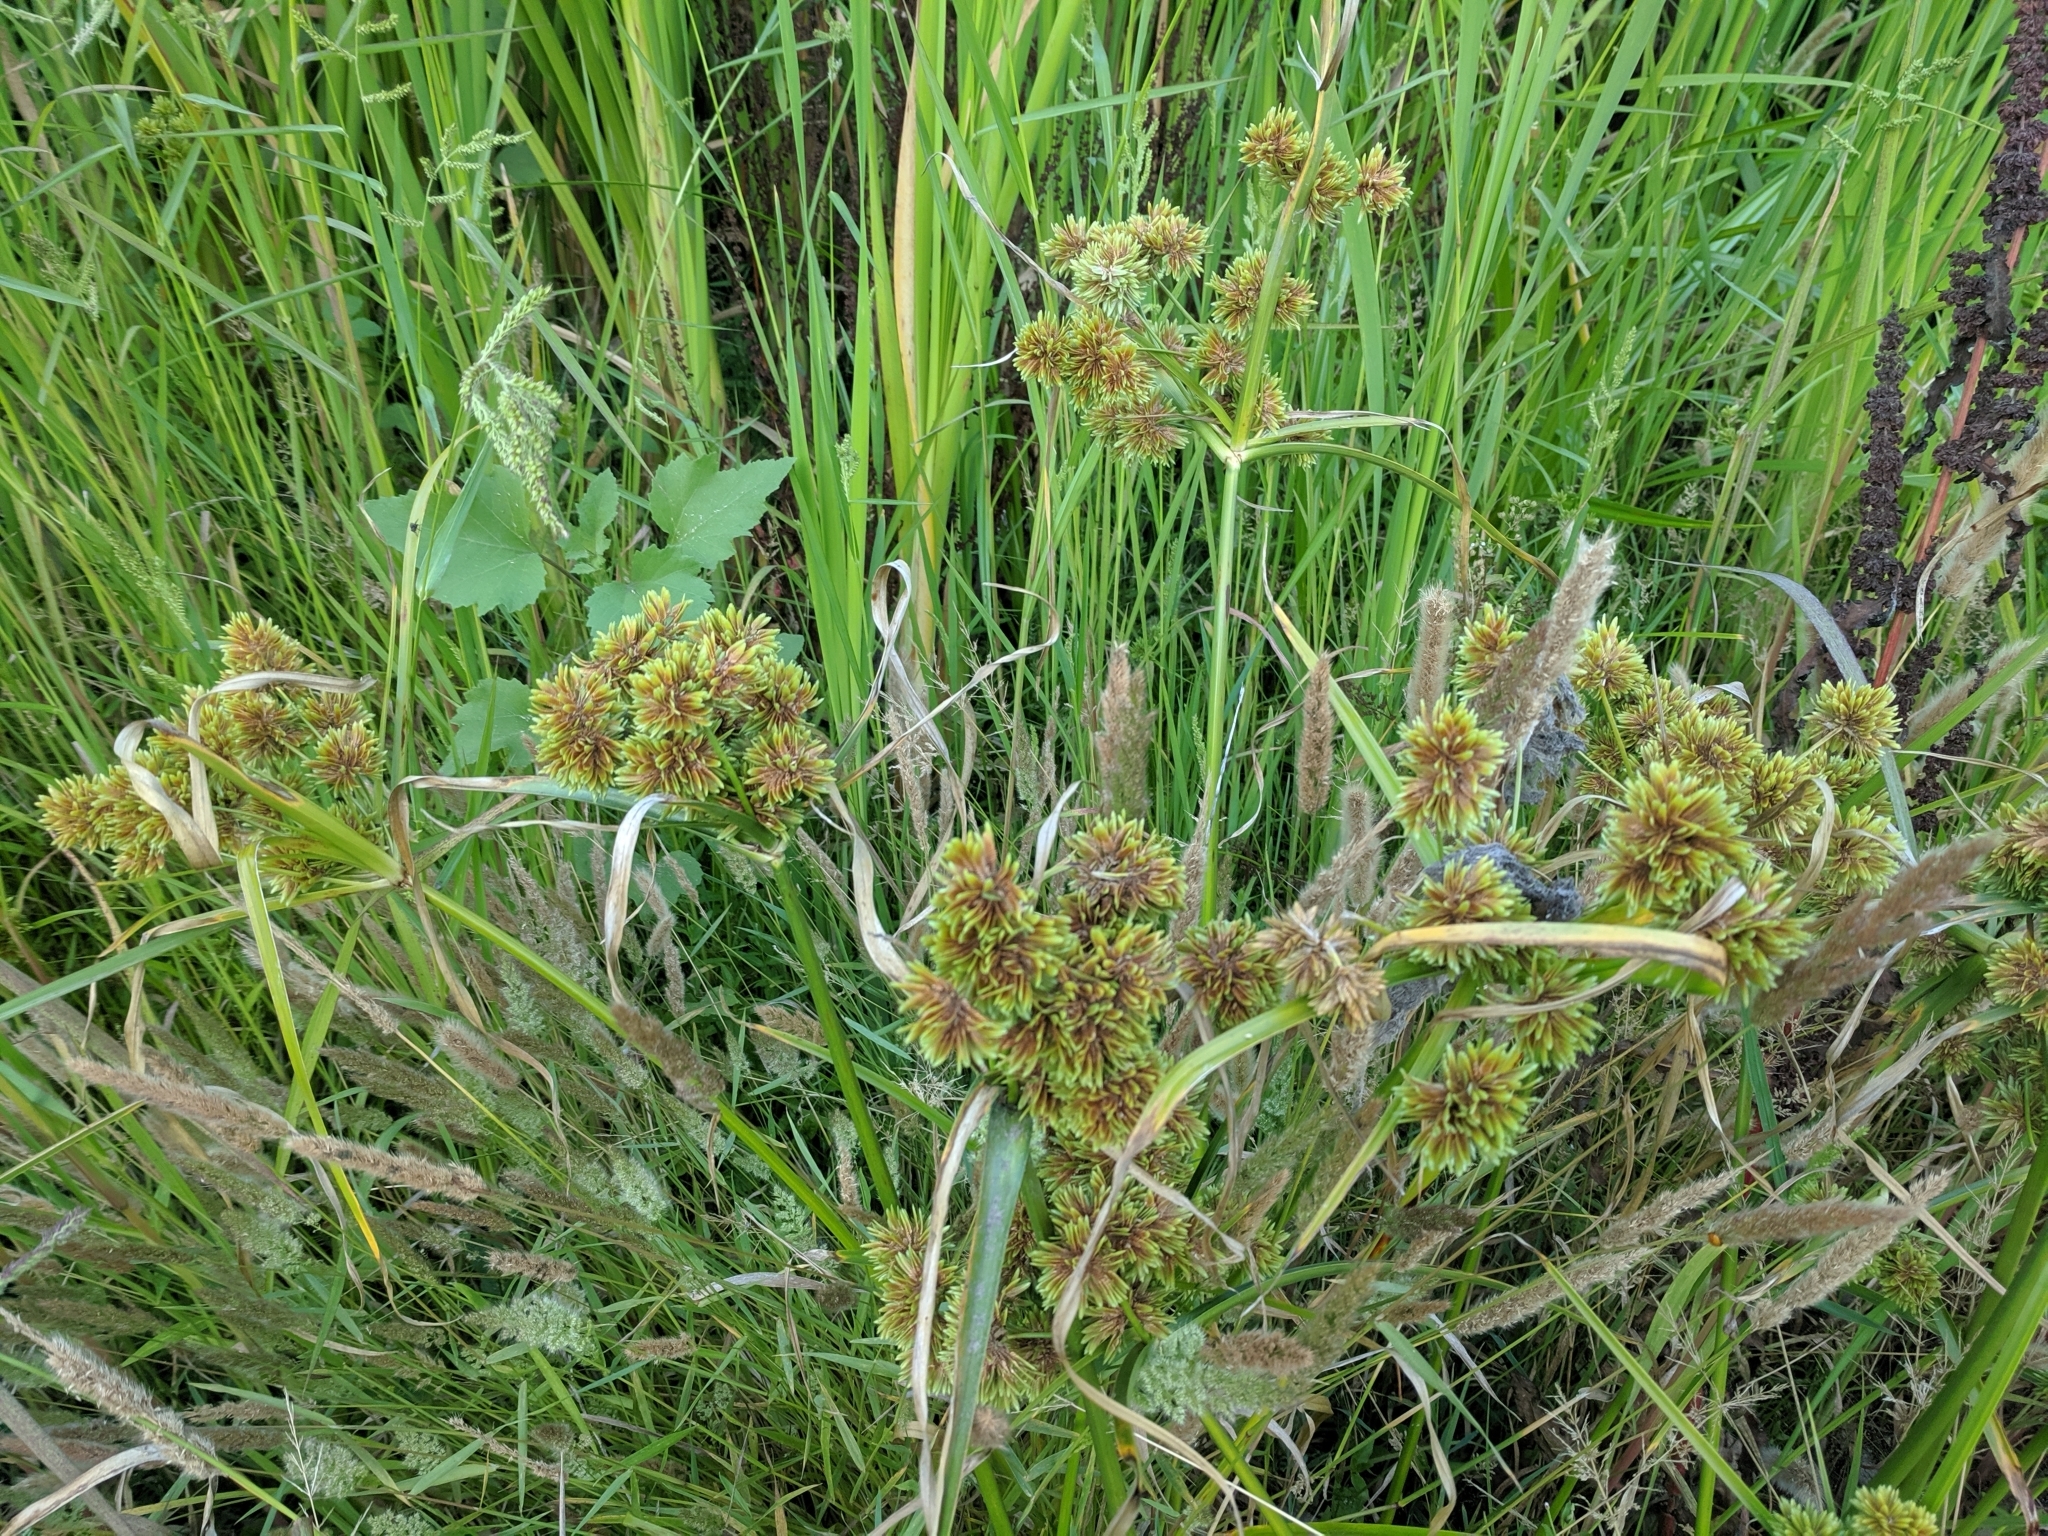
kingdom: Plantae
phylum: Tracheophyta
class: Liliopsida
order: Poales
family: Cyperaceae
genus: Cyperus
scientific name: Cyperus eragrostis
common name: Tall flatsedge
